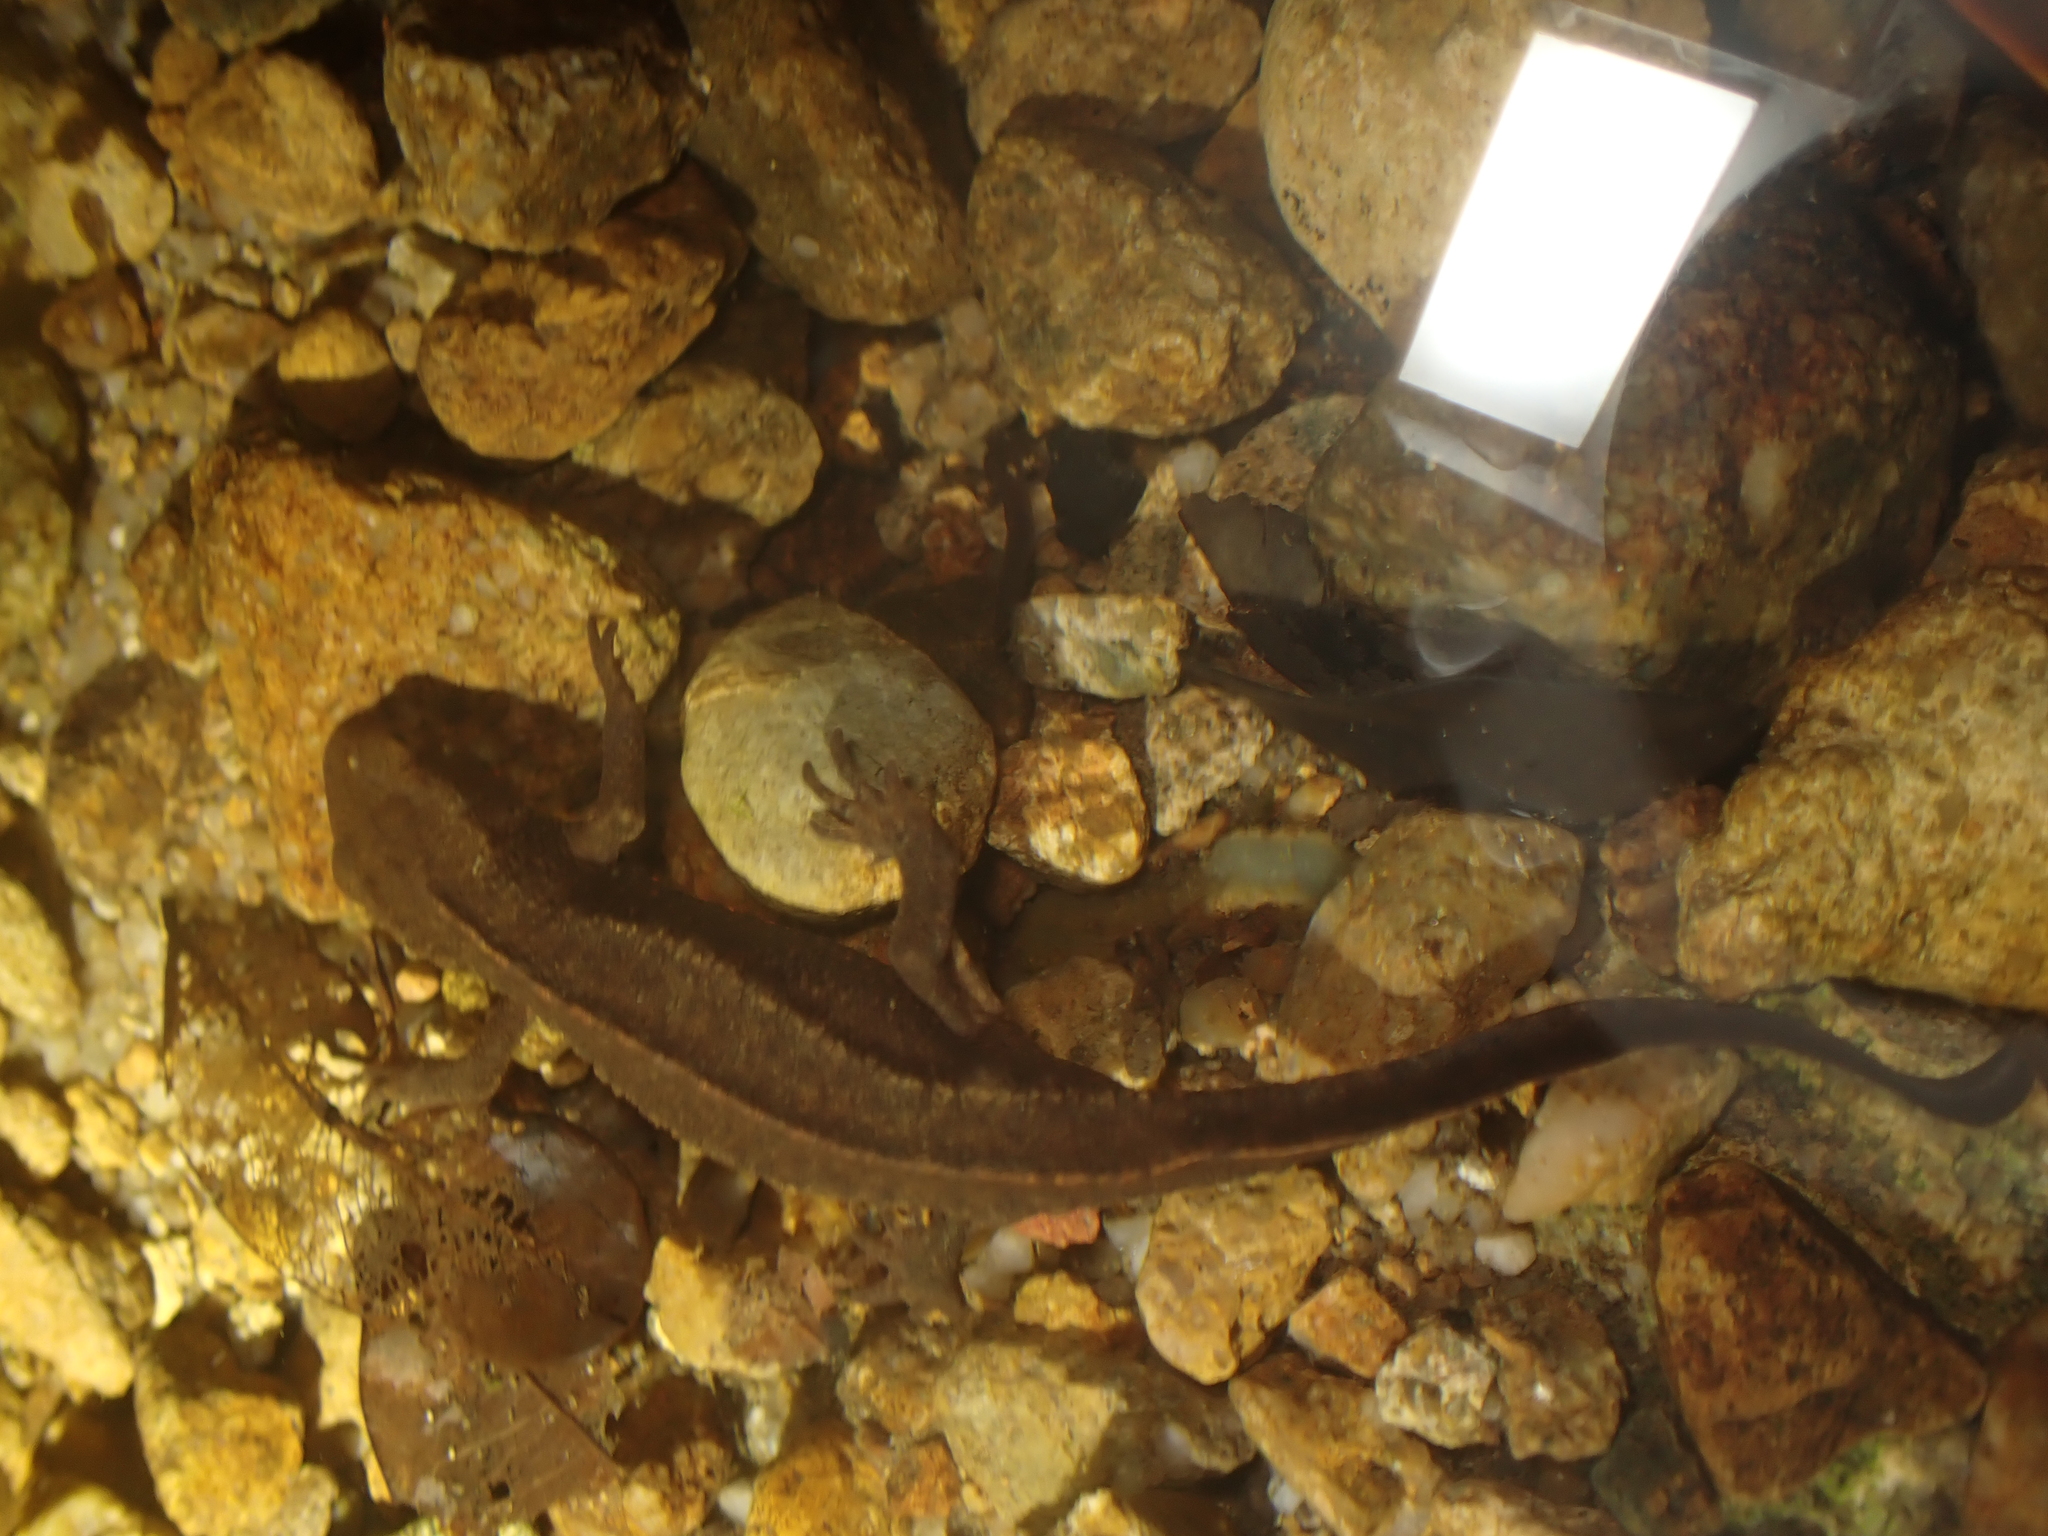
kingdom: Animalia
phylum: Chordata
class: Amphibia
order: Caudata
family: Salamandridae
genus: Paramesotriton
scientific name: Paramesotriton hongkongensis
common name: Hong kong warty newt
